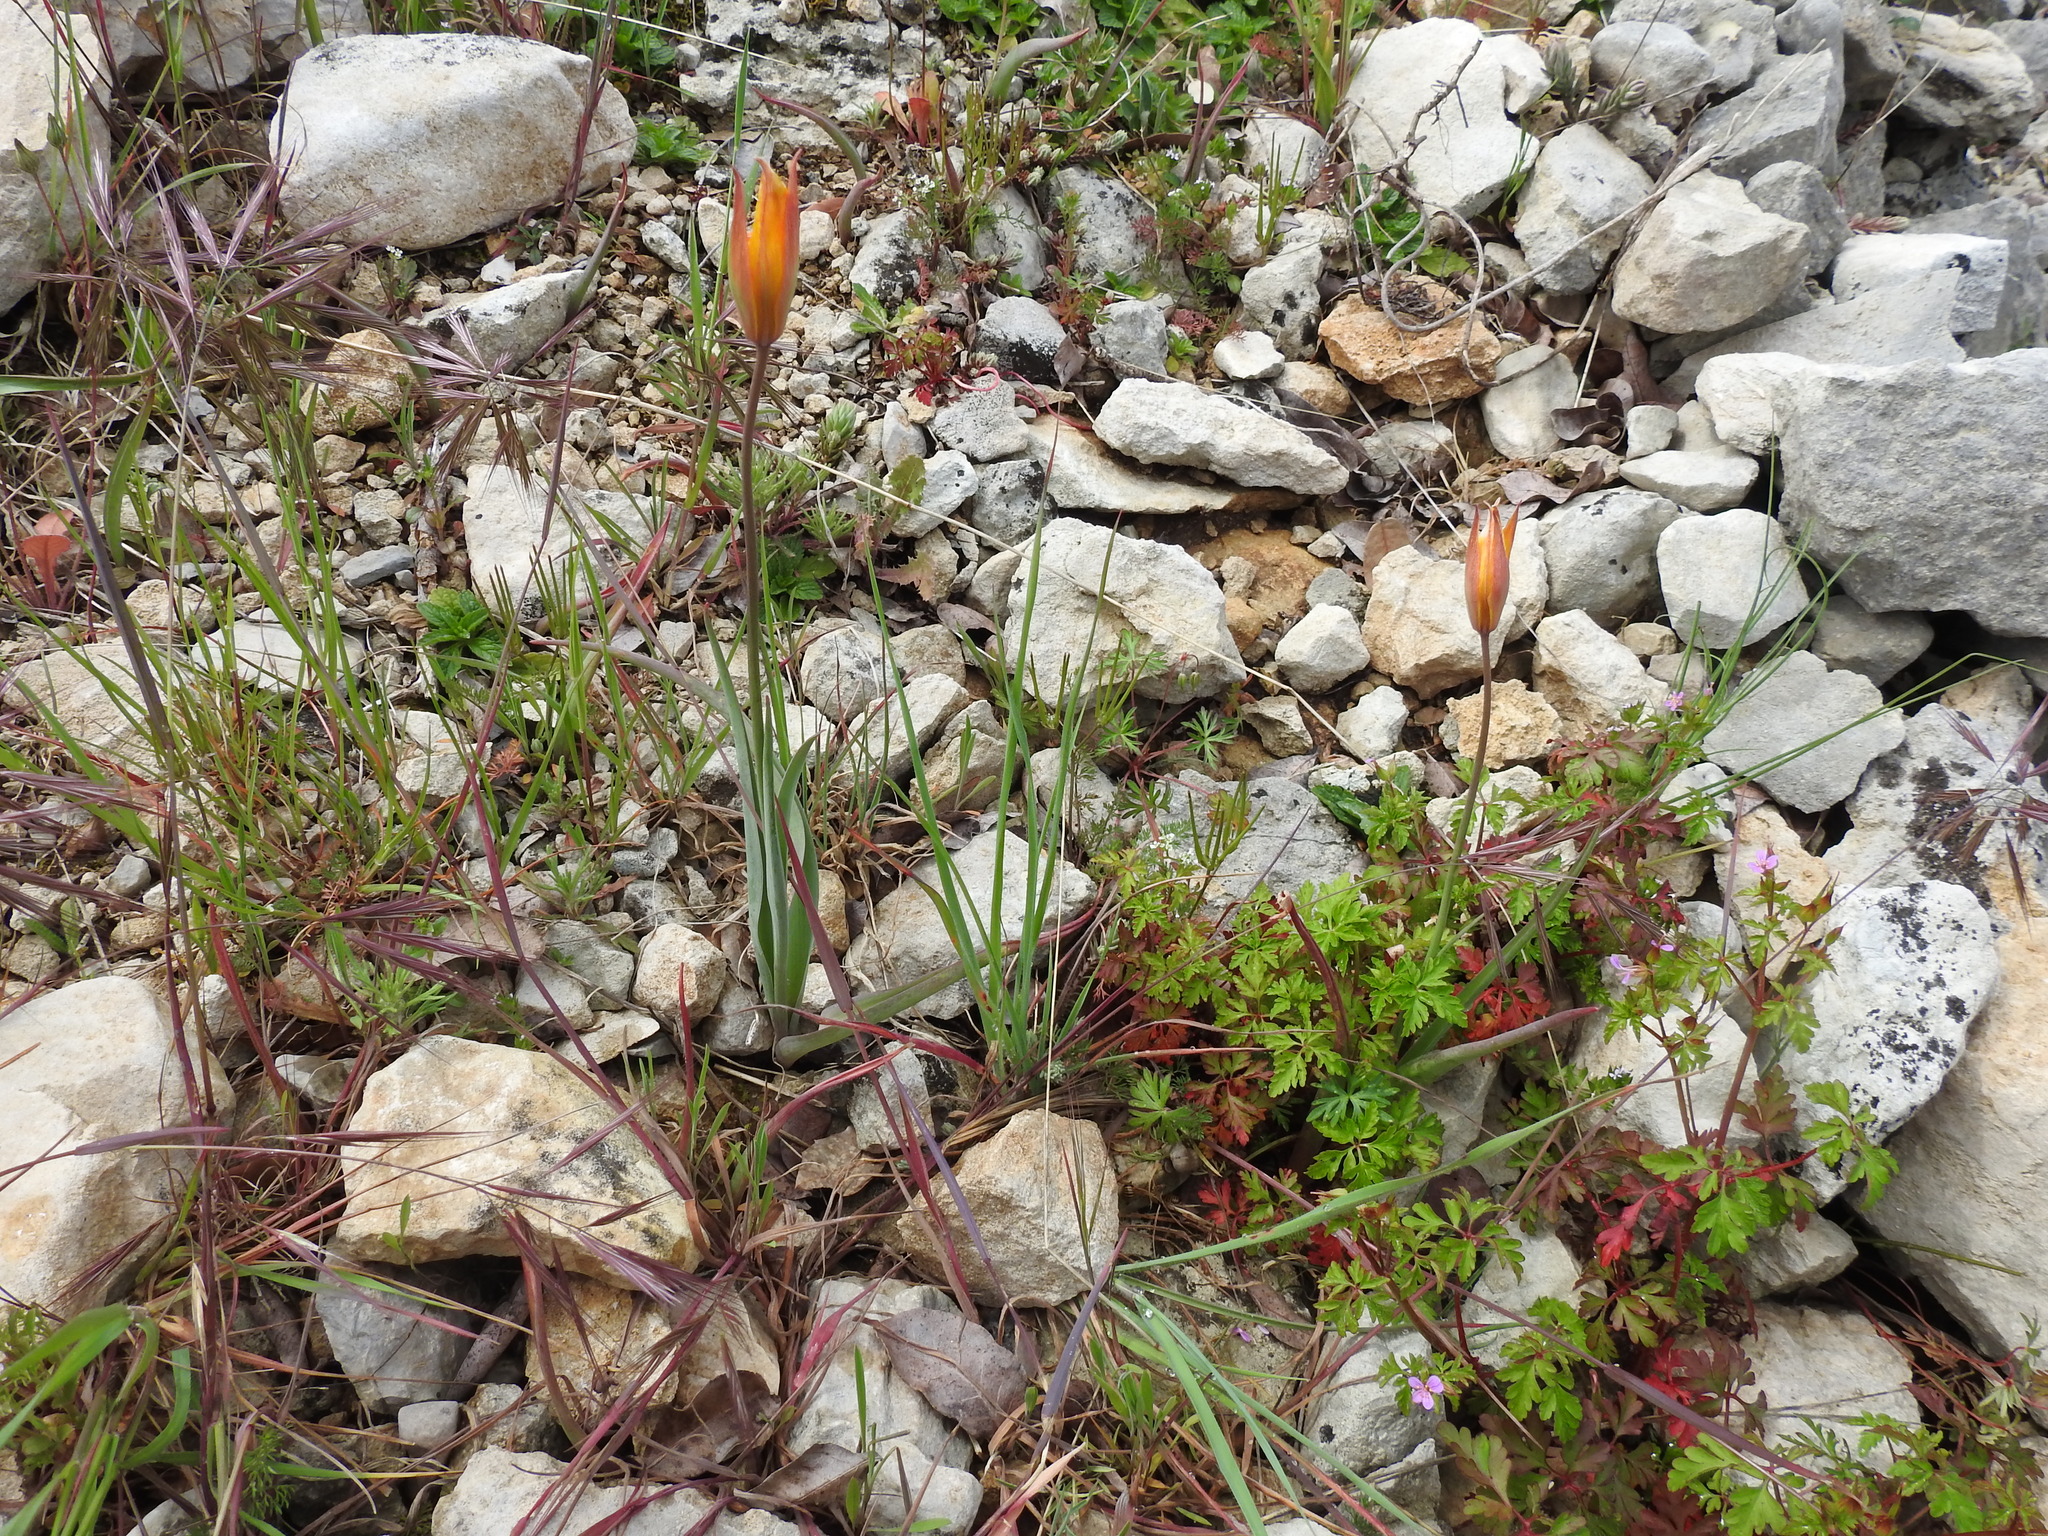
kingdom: Plantae
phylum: Tracheophyta
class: Liliopsida
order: Liliales
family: Liliaceae
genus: Tulipa
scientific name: Tulipa sylvestris
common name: Wild tulip
